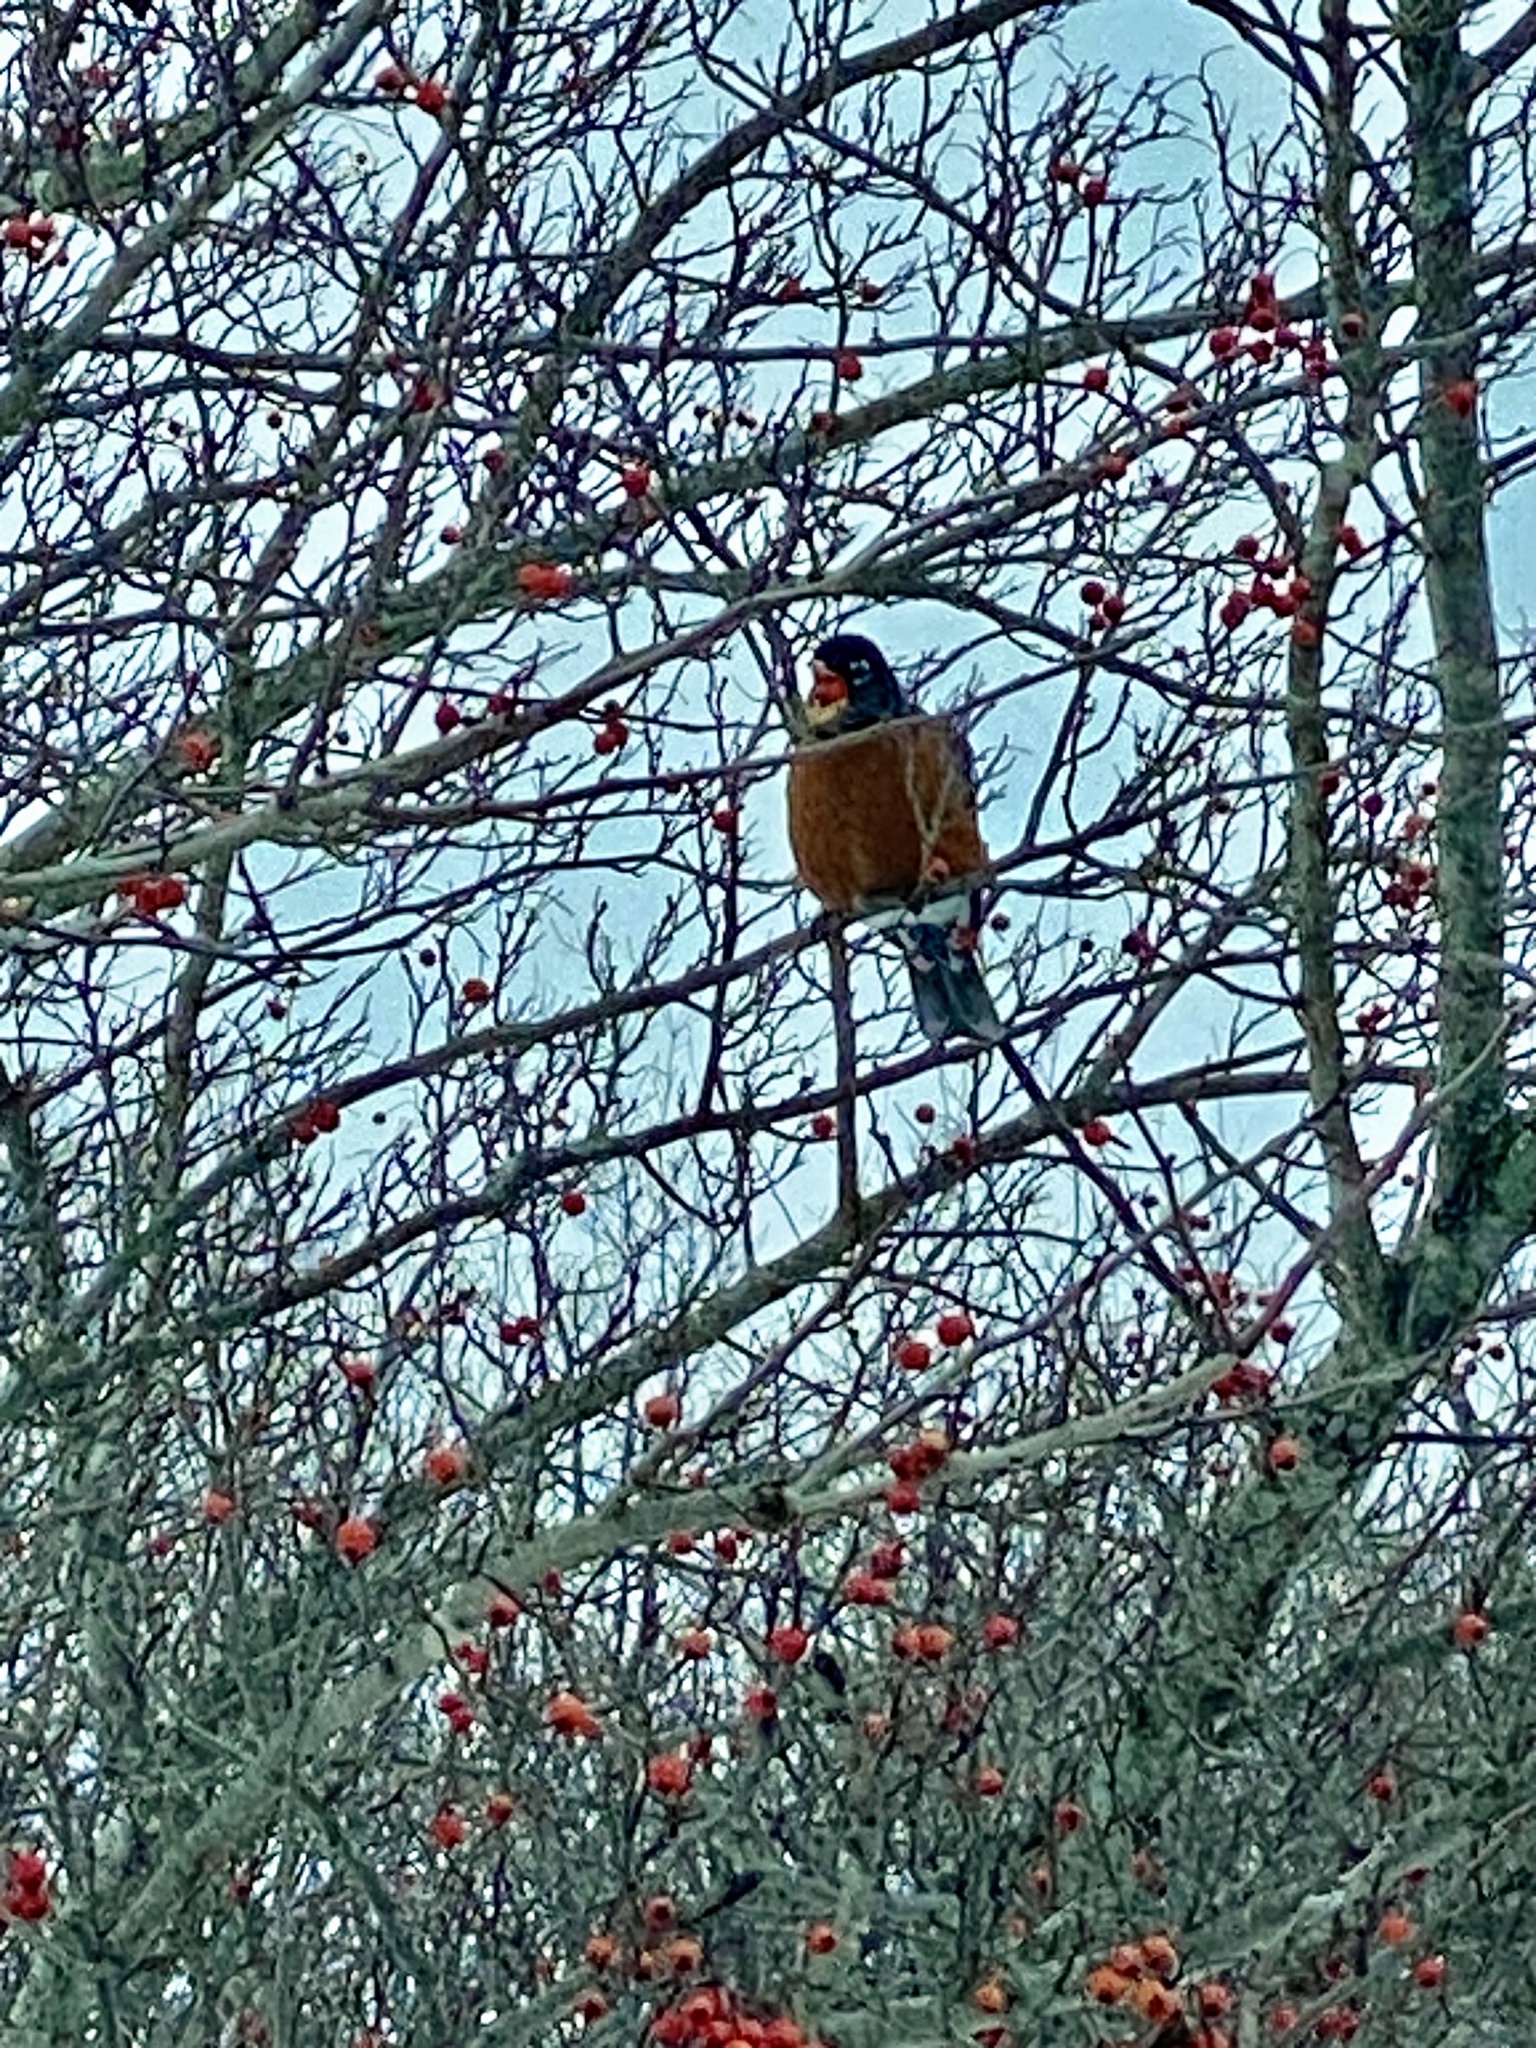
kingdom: Animalia
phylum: Chordata
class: Aves
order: Passeriformes
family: Turdidae
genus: Turdus
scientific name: Turdus migratorius
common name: American robin
